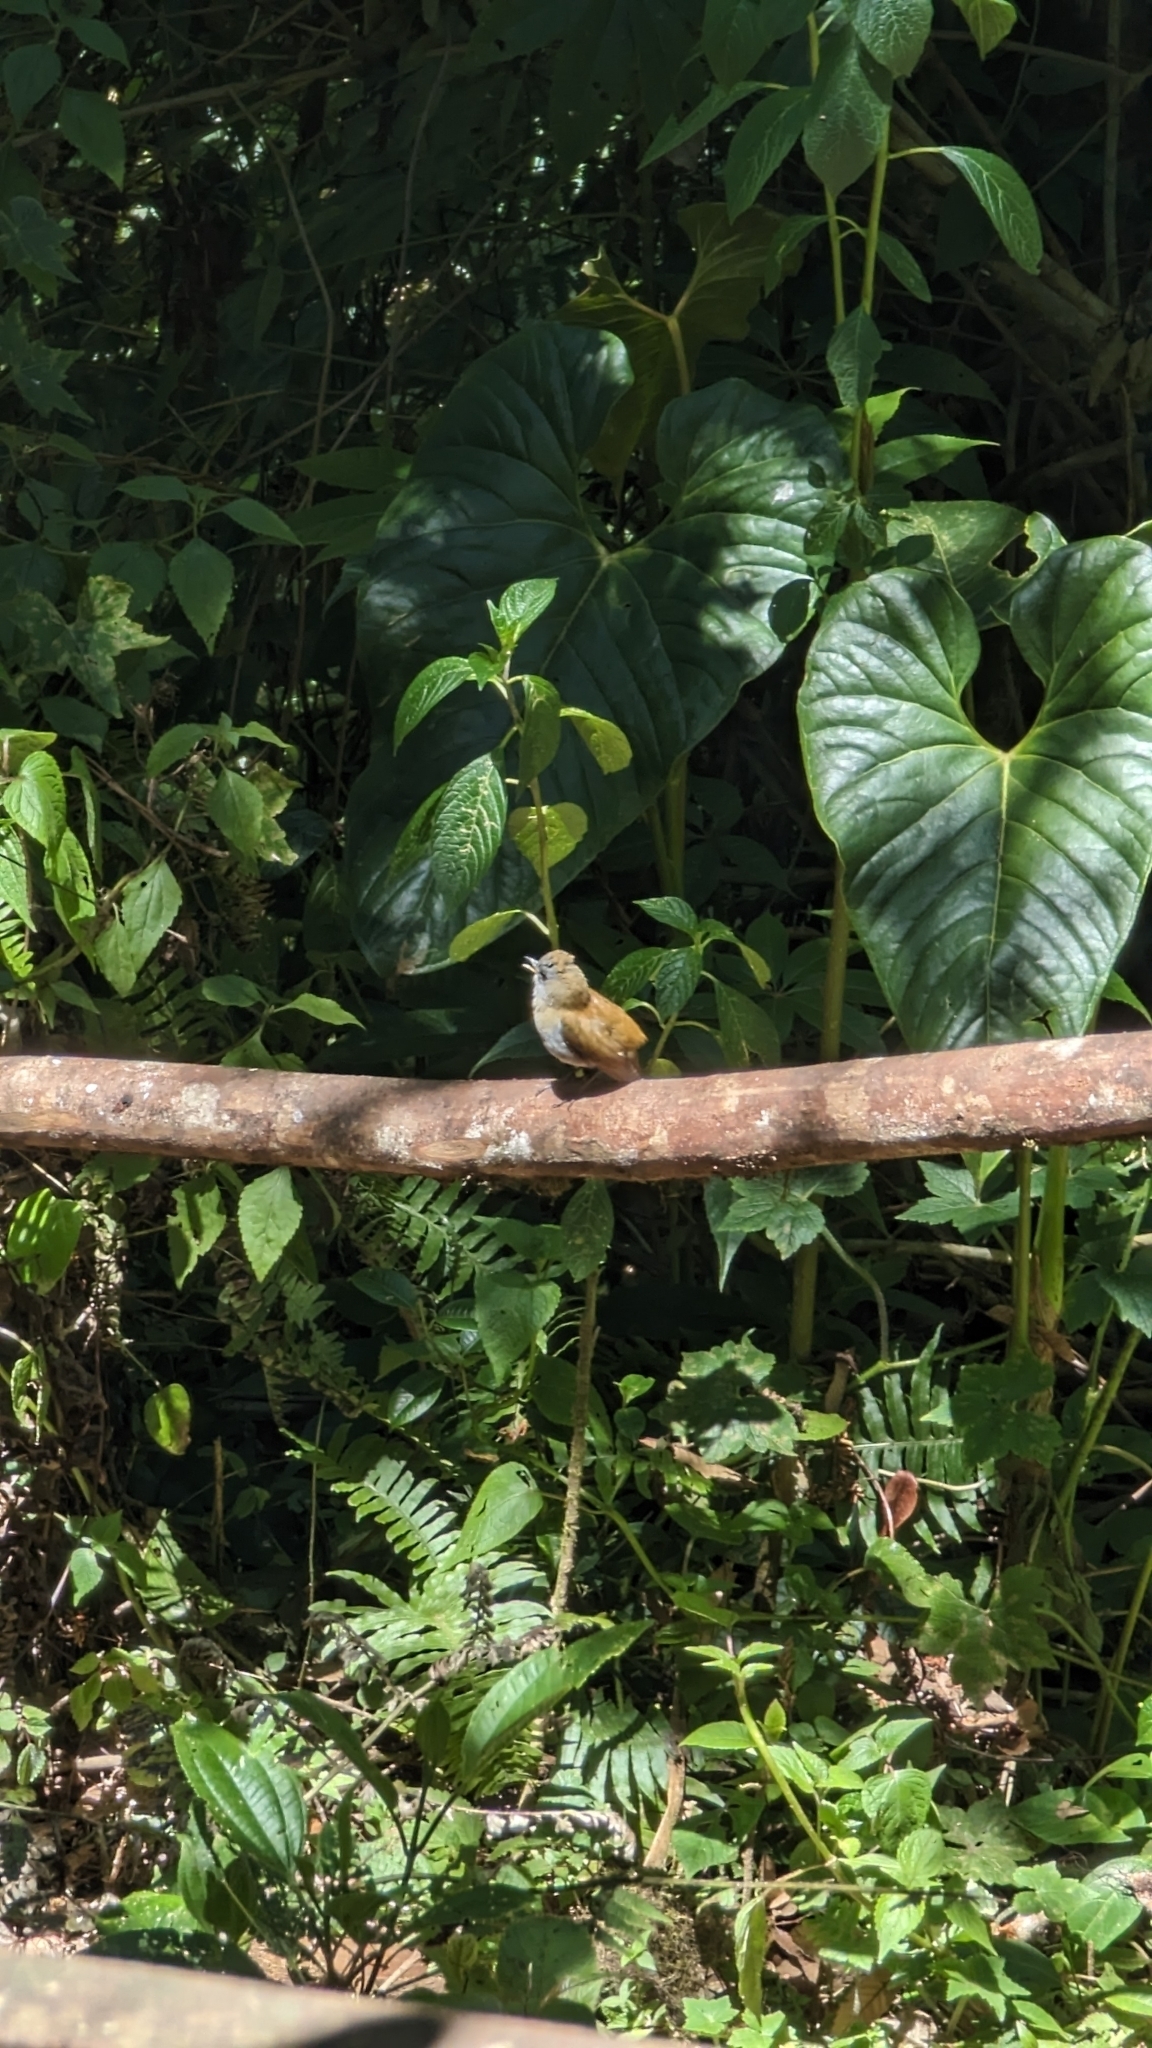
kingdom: Animalia
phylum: Chordata
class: Aves
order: Passeriformes
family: Turdidae
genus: Catharus
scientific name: Catharus gracilirostris
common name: Black-billed nightingale-thrush
